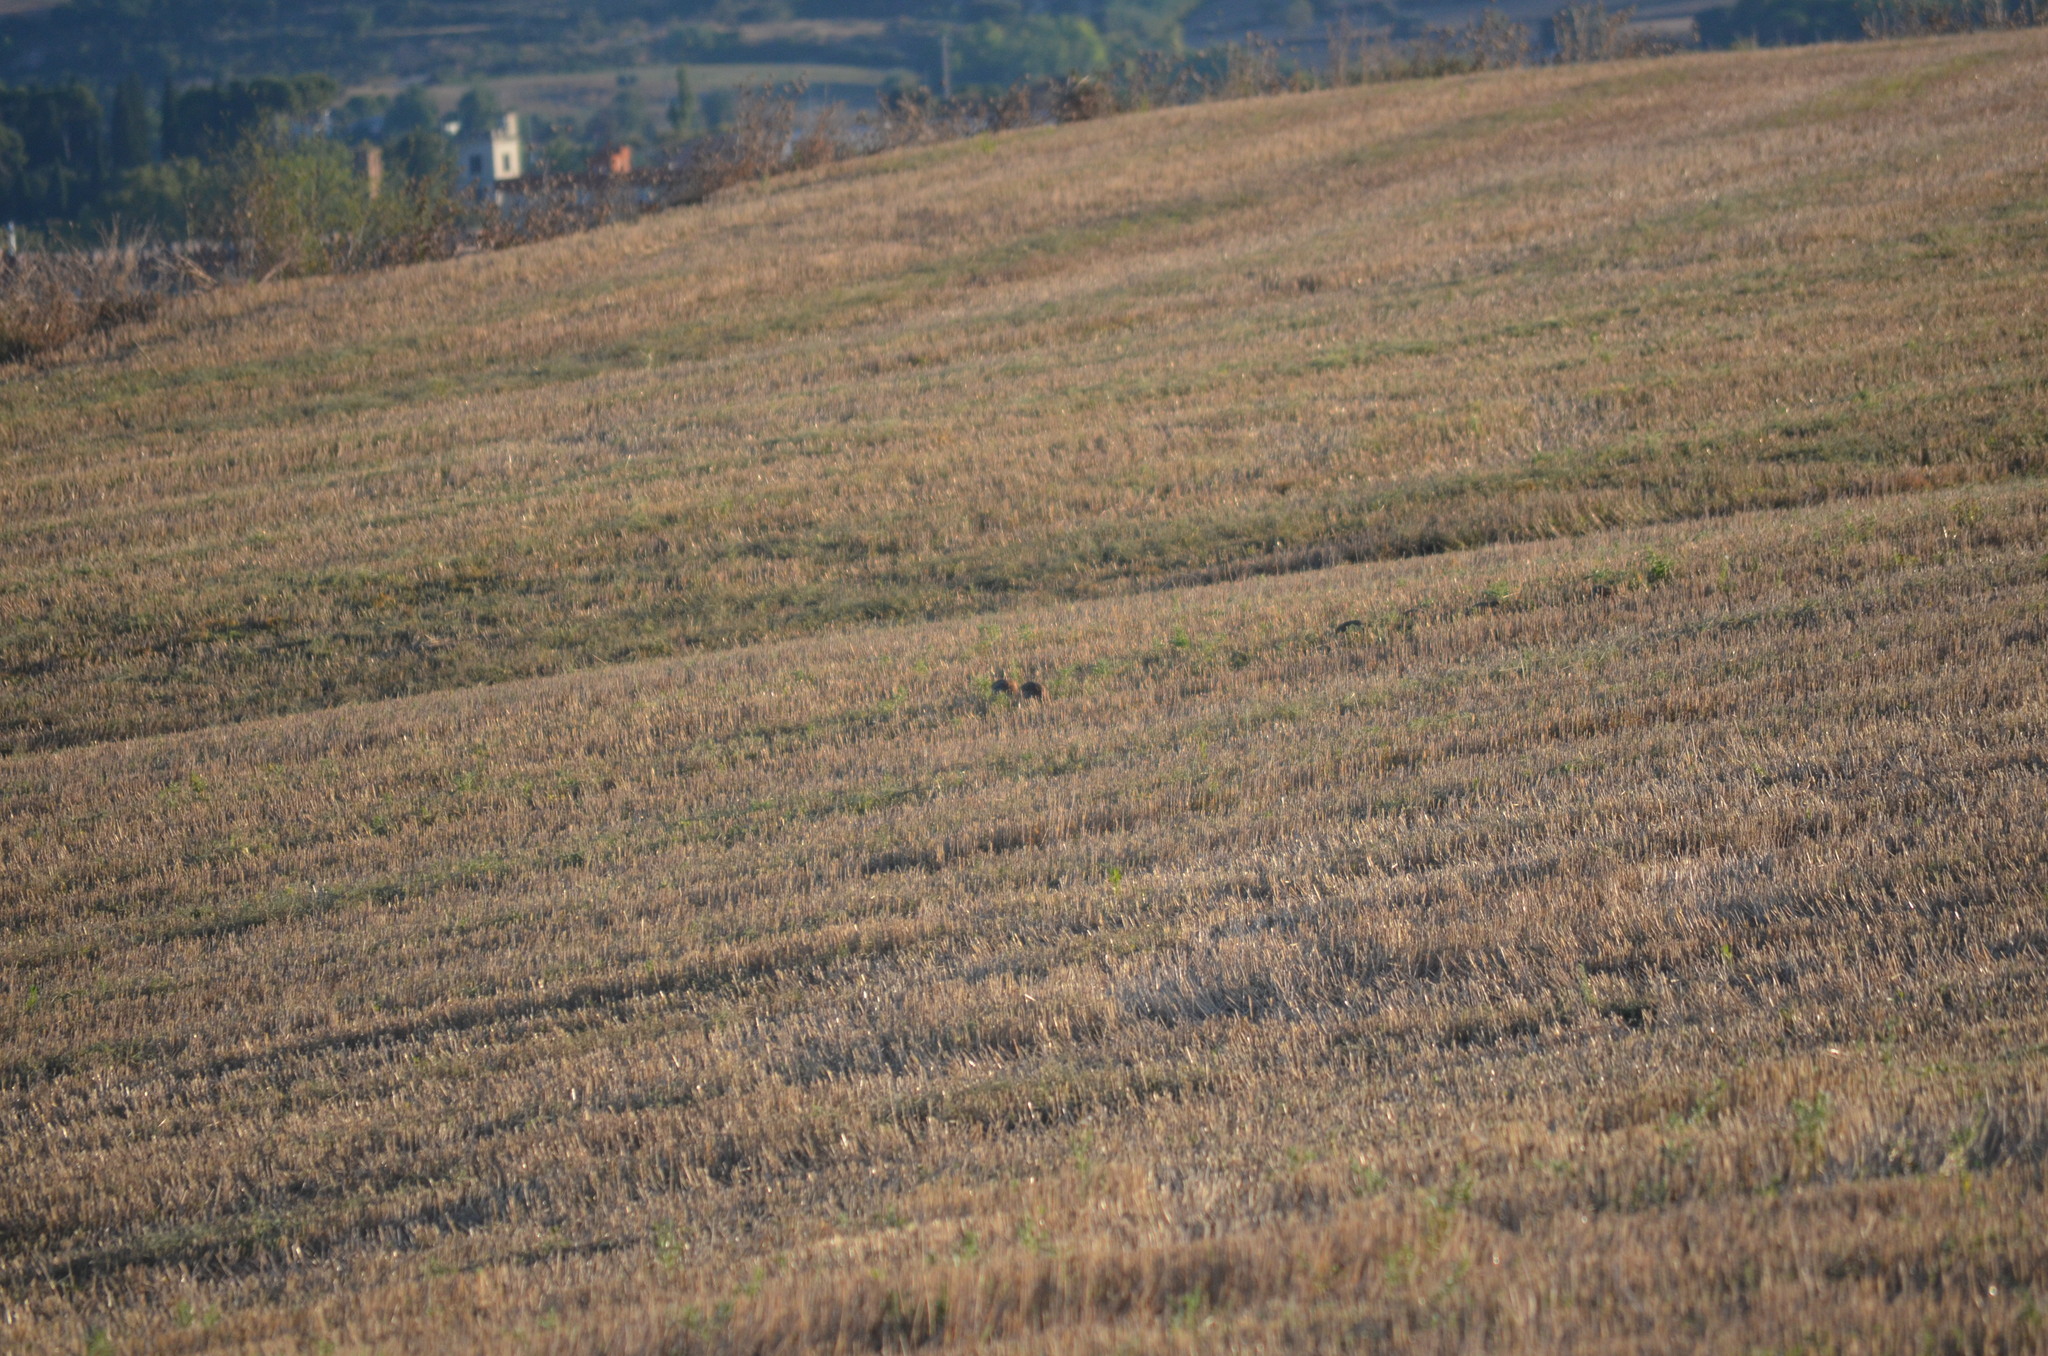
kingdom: Animalia
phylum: Chordata
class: Aves
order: Galliformes
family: Phasianidae
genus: Alectoris
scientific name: Alectoris rufa
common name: Red-legged partridge
